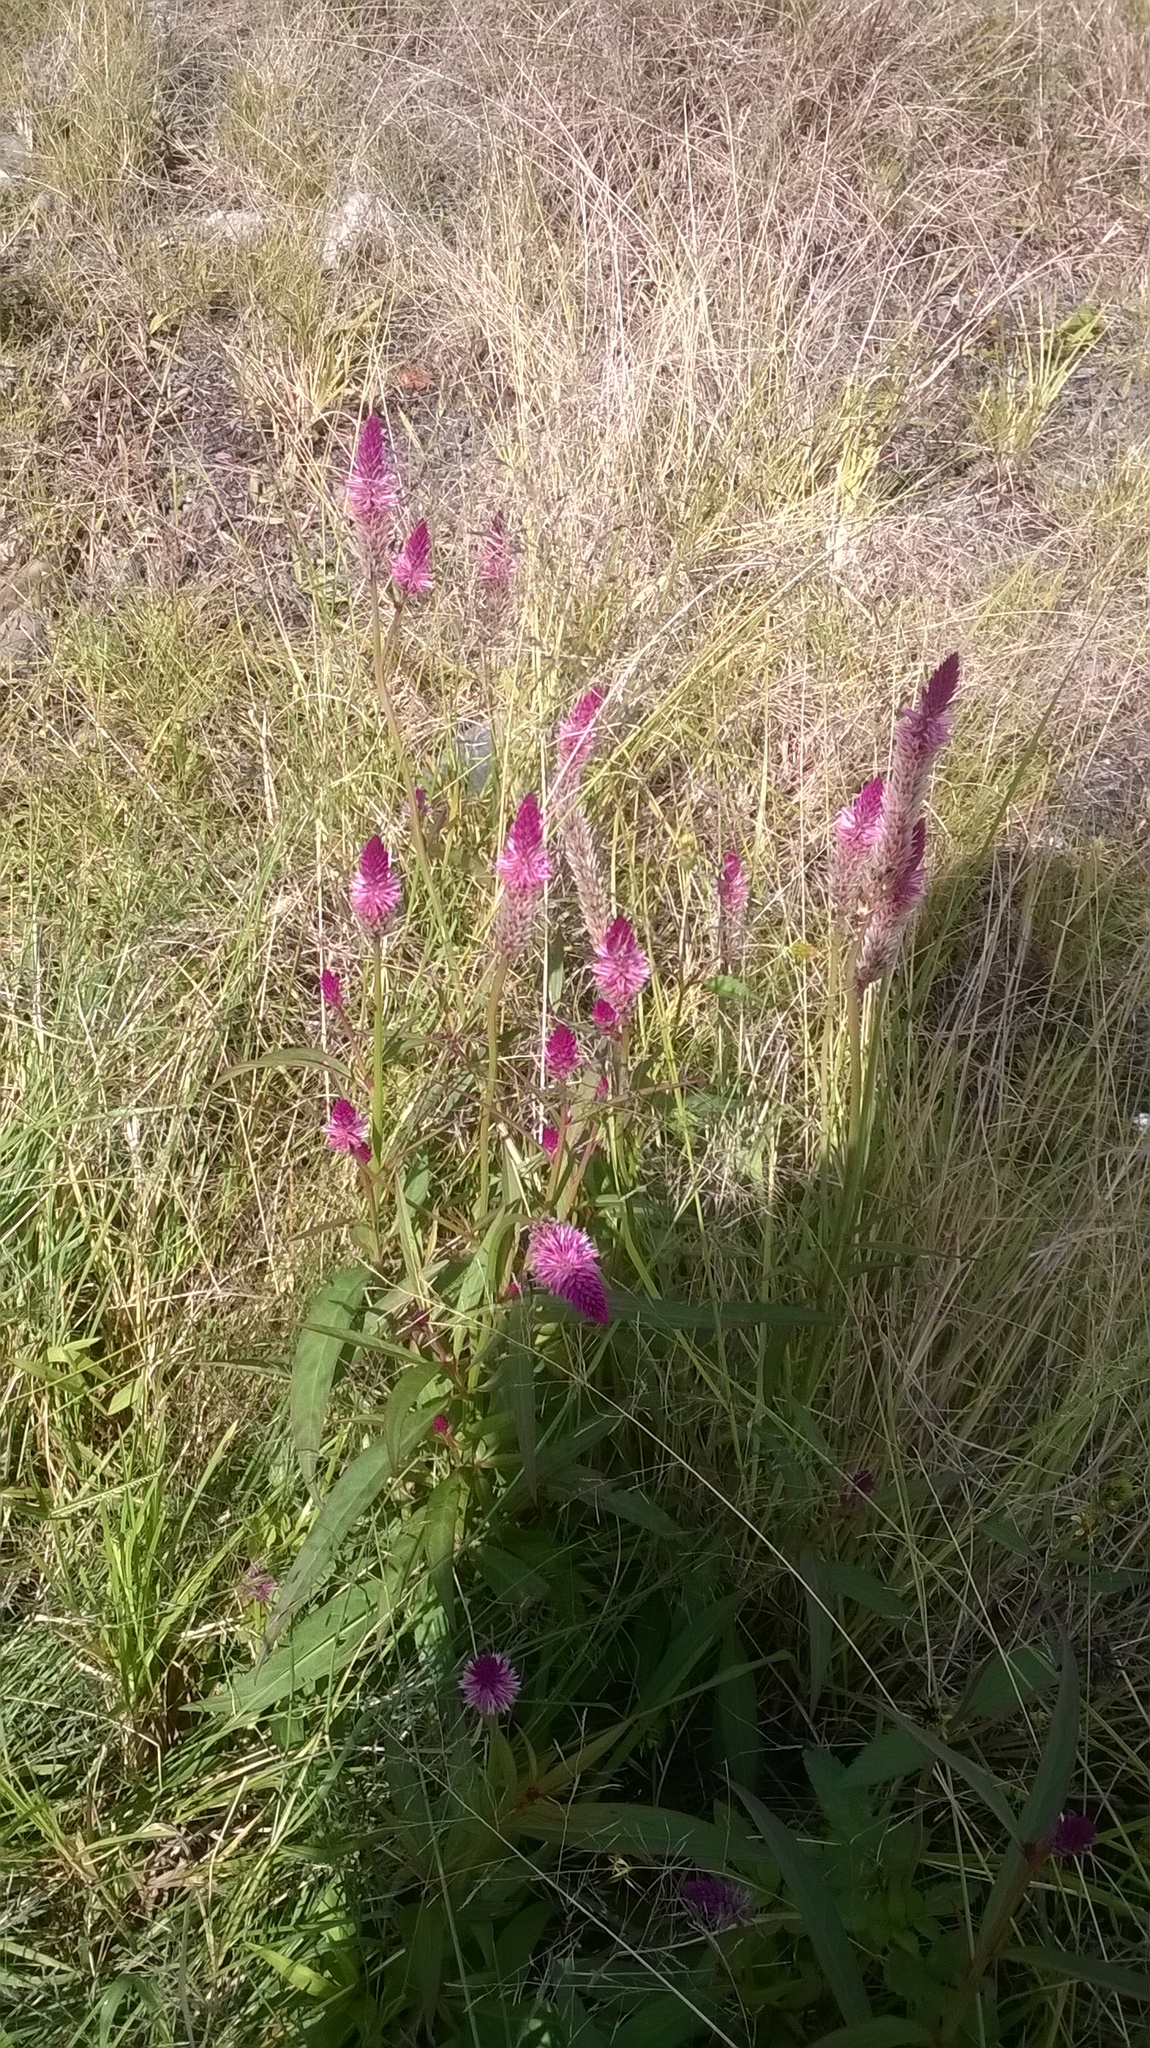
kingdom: Plantae
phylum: Tracheophyta
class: Magnoliopsida
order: Caryophyllales
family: Amaranthaceae
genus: Celosia
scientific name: Celosia argentea
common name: Feather cockscomb
